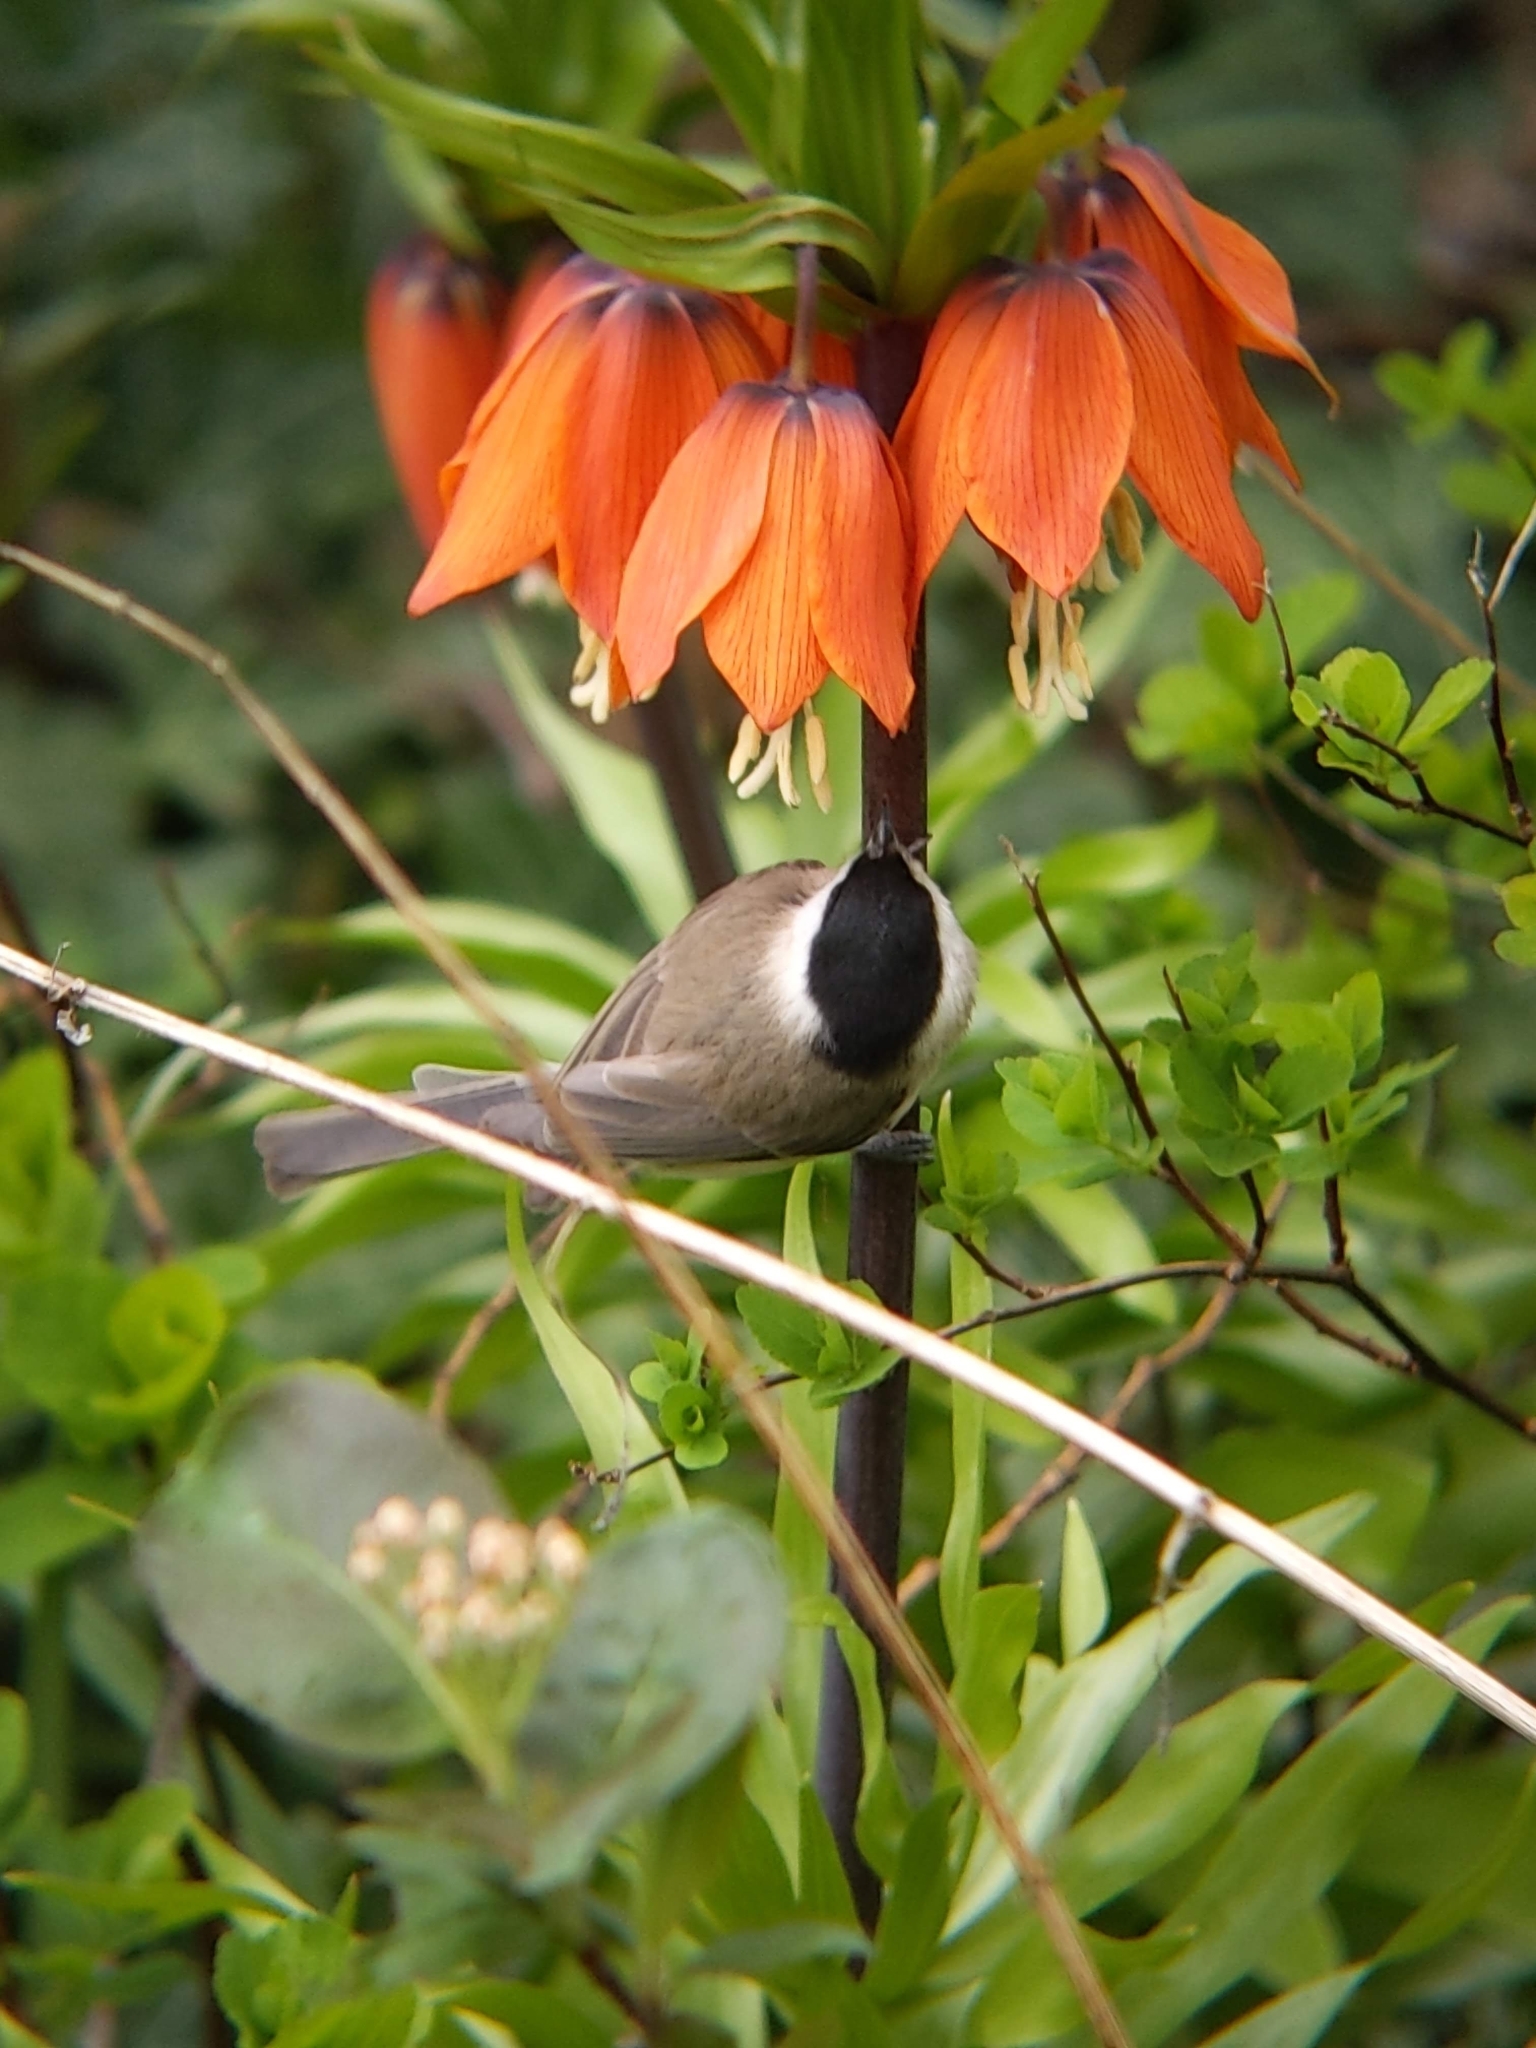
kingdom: Animalia
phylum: Chordata
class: Aves
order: Passeriformes
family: Paridae
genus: Poecile
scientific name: Poecile palustris
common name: Marsh tit
